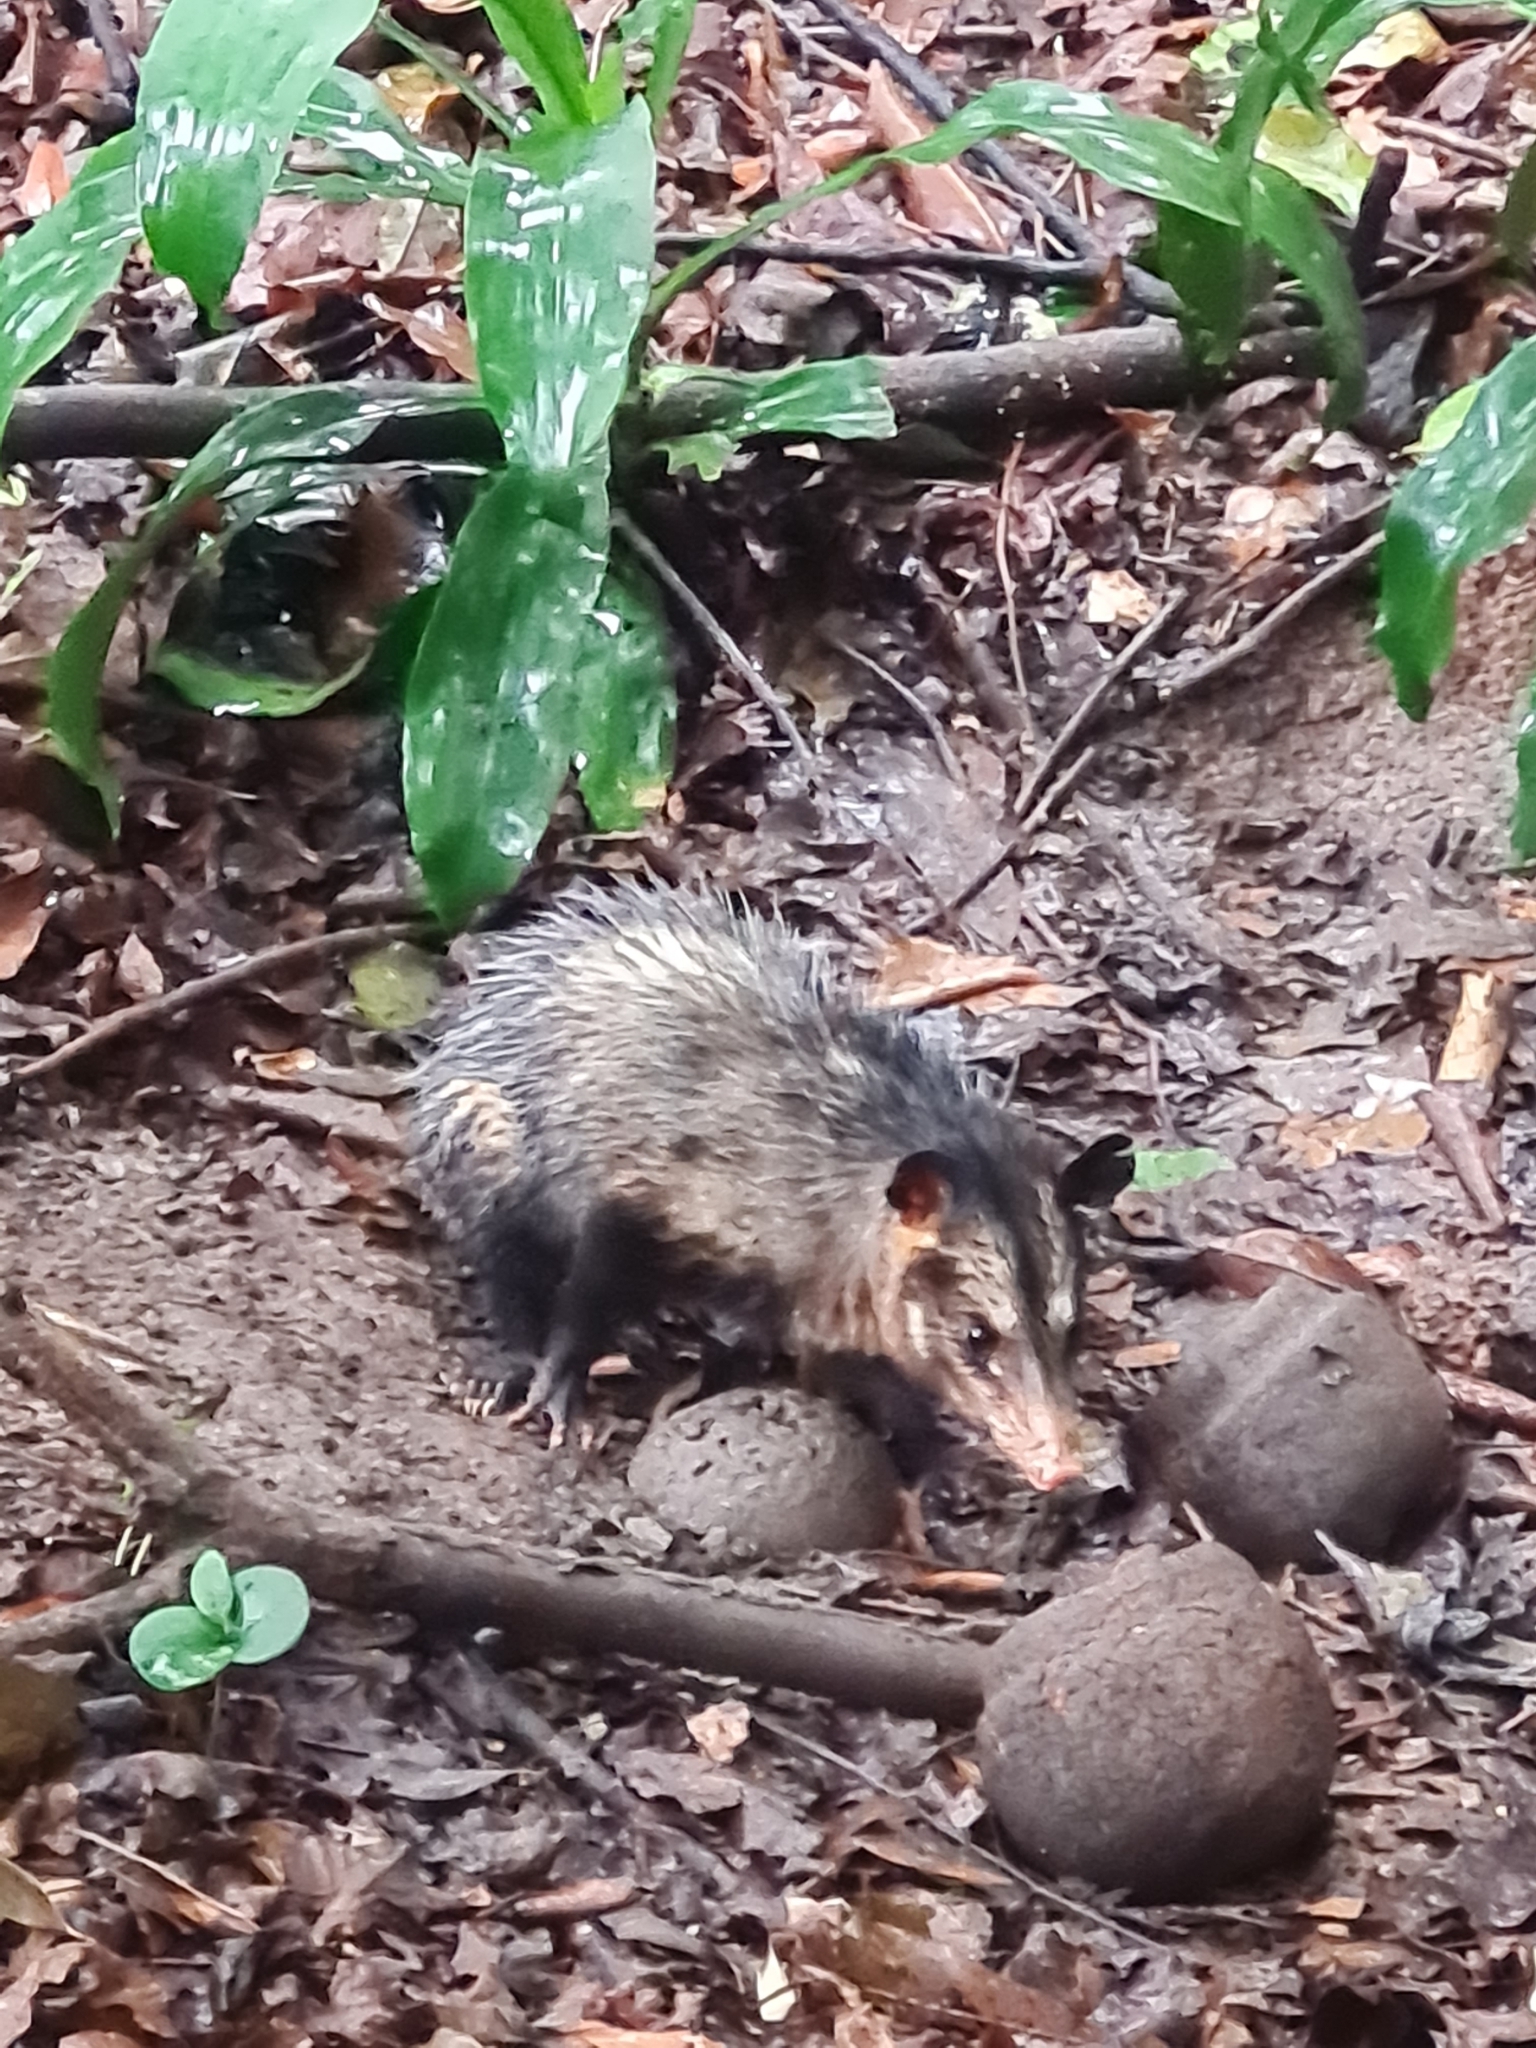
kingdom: Animalia
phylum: Chordata
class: Mammalia
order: Didelphimorphia
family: Didelphidae
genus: Didelphis
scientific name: Didelphis aurita
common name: Big-eared opossum
